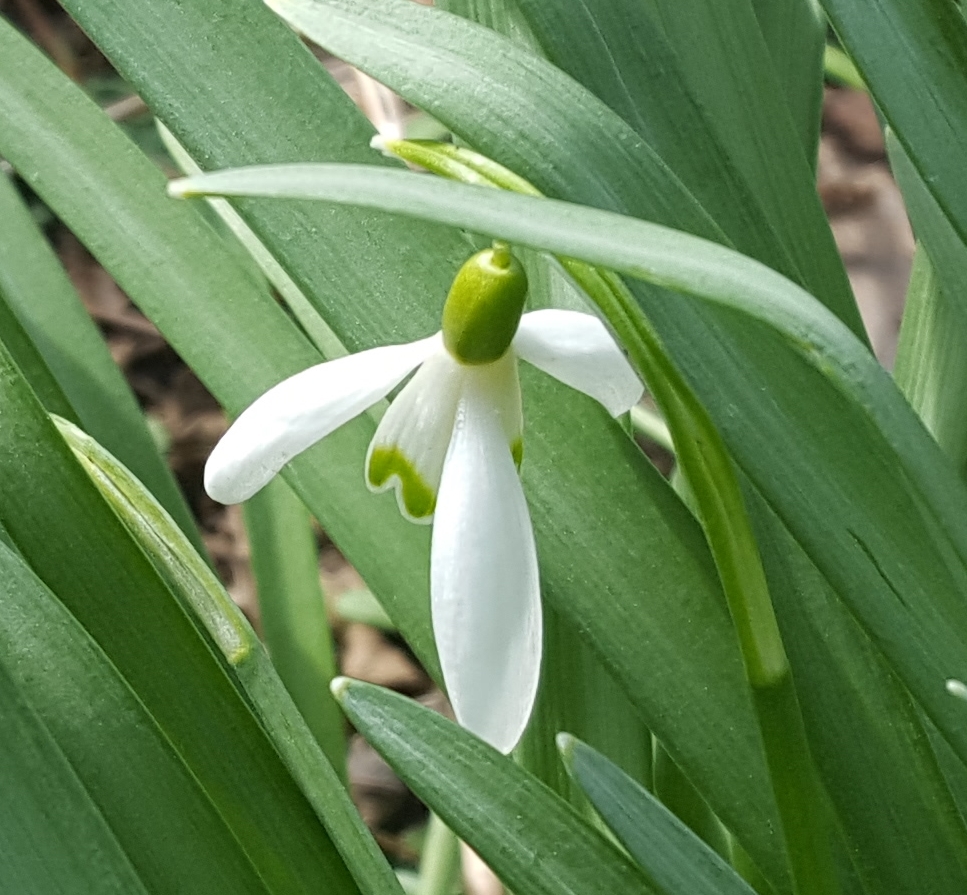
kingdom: Plantae
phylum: Tracheophyta
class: Liliopsida
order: Asparagales
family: Amaryllidaceae
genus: Galanthus
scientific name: Galanthus nivalis
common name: Snowdrop
